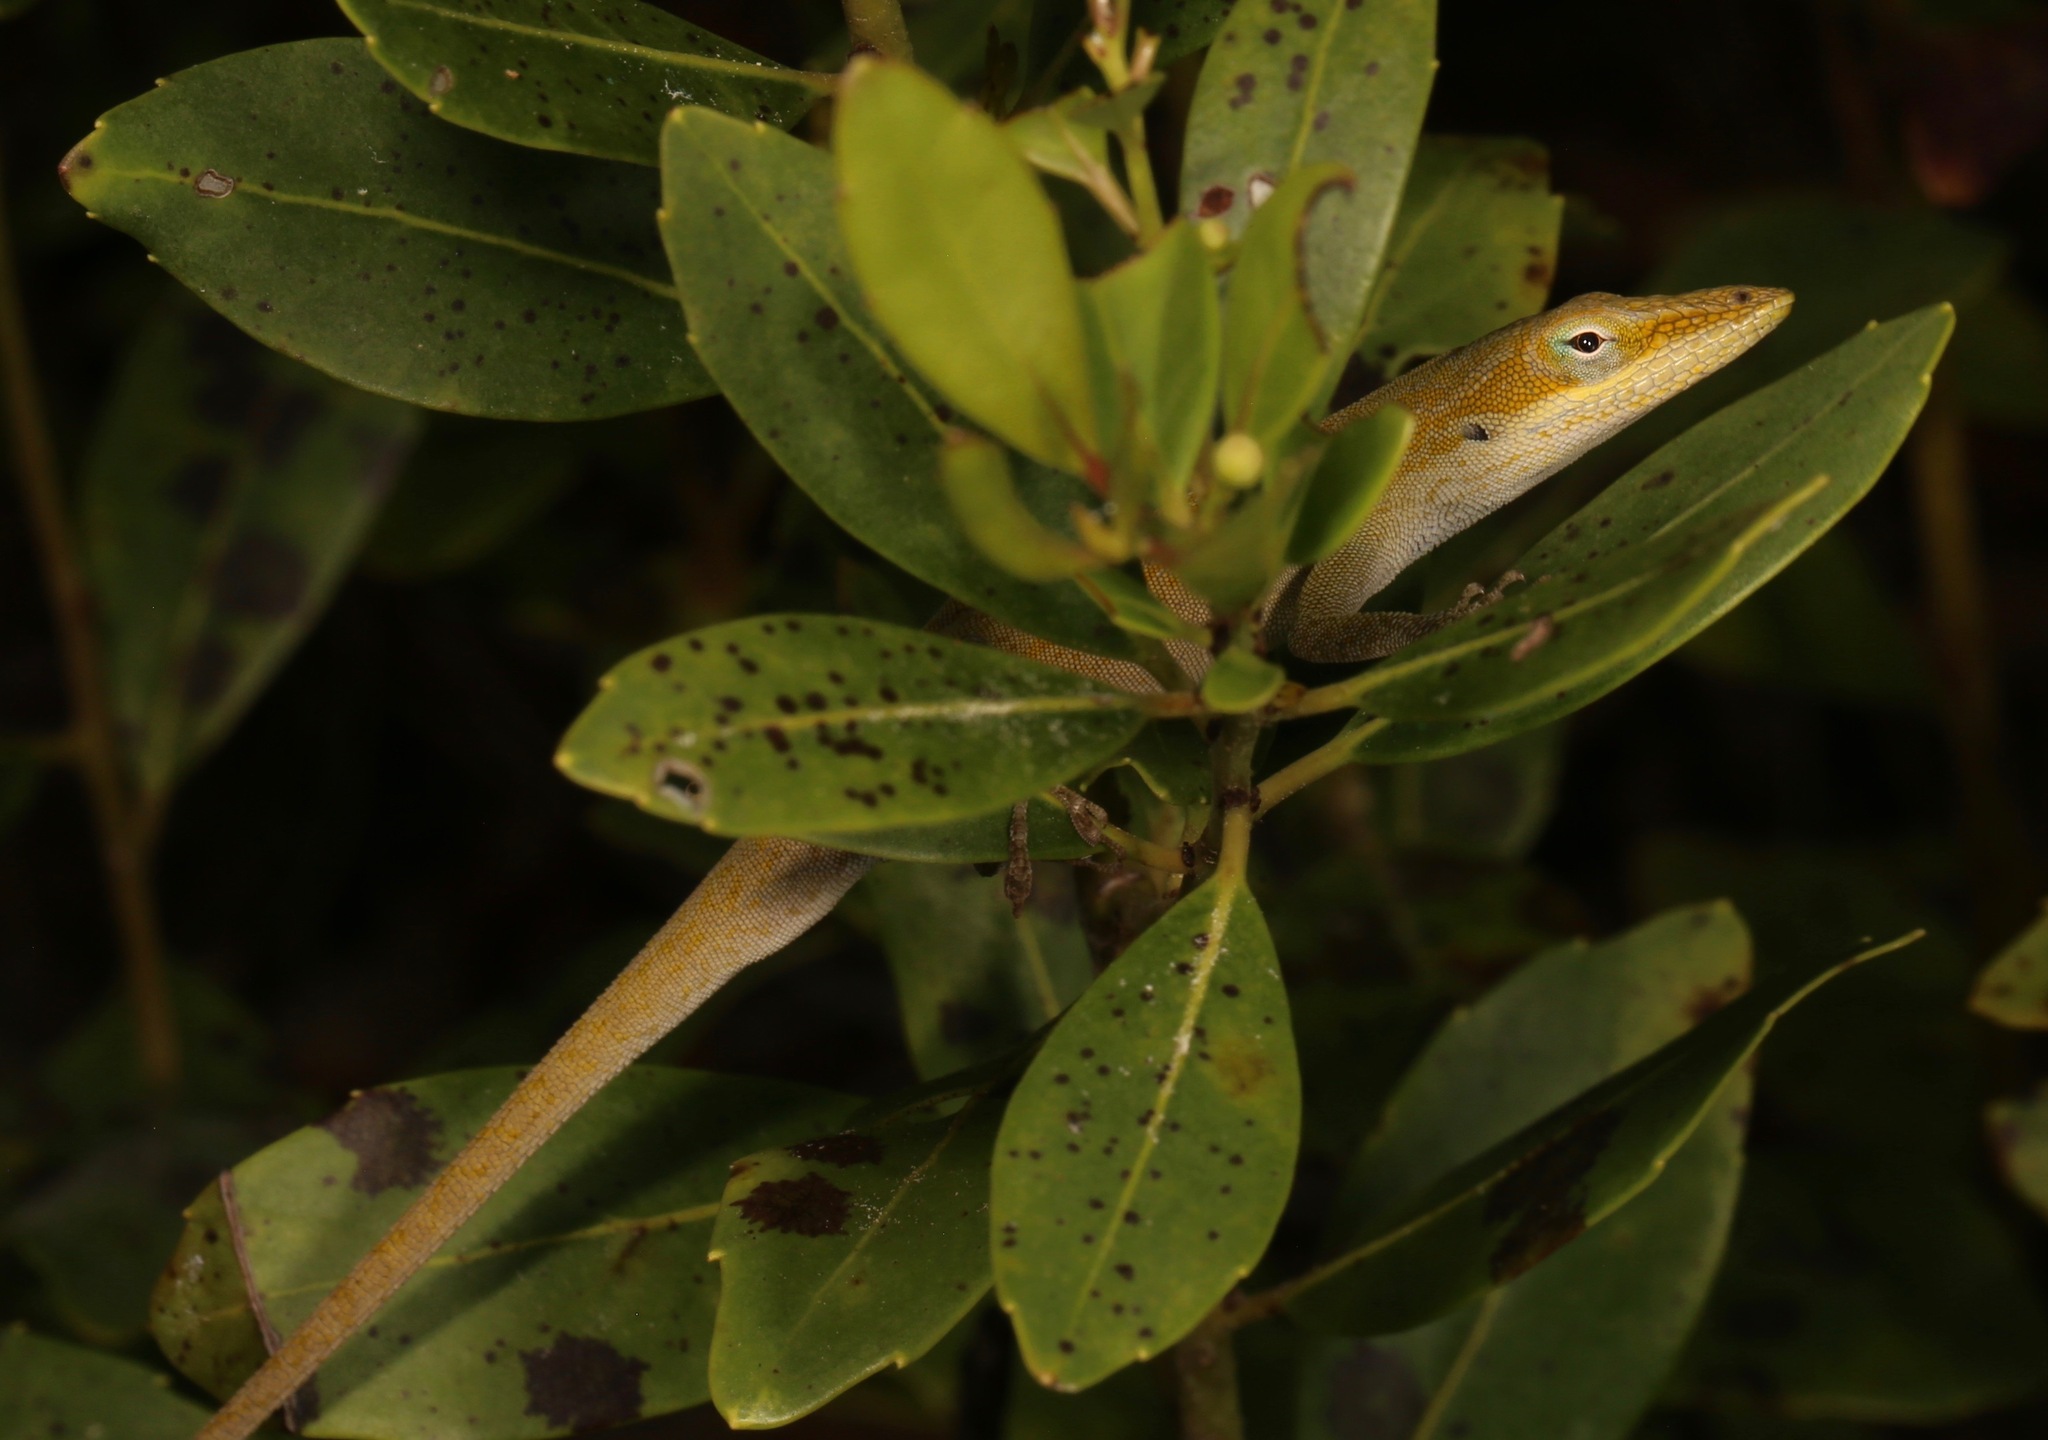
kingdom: Animalia
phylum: Chordata
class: Squamata
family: Dactyloidae
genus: Anolis
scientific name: Anolis carolinensis
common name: Green anole
